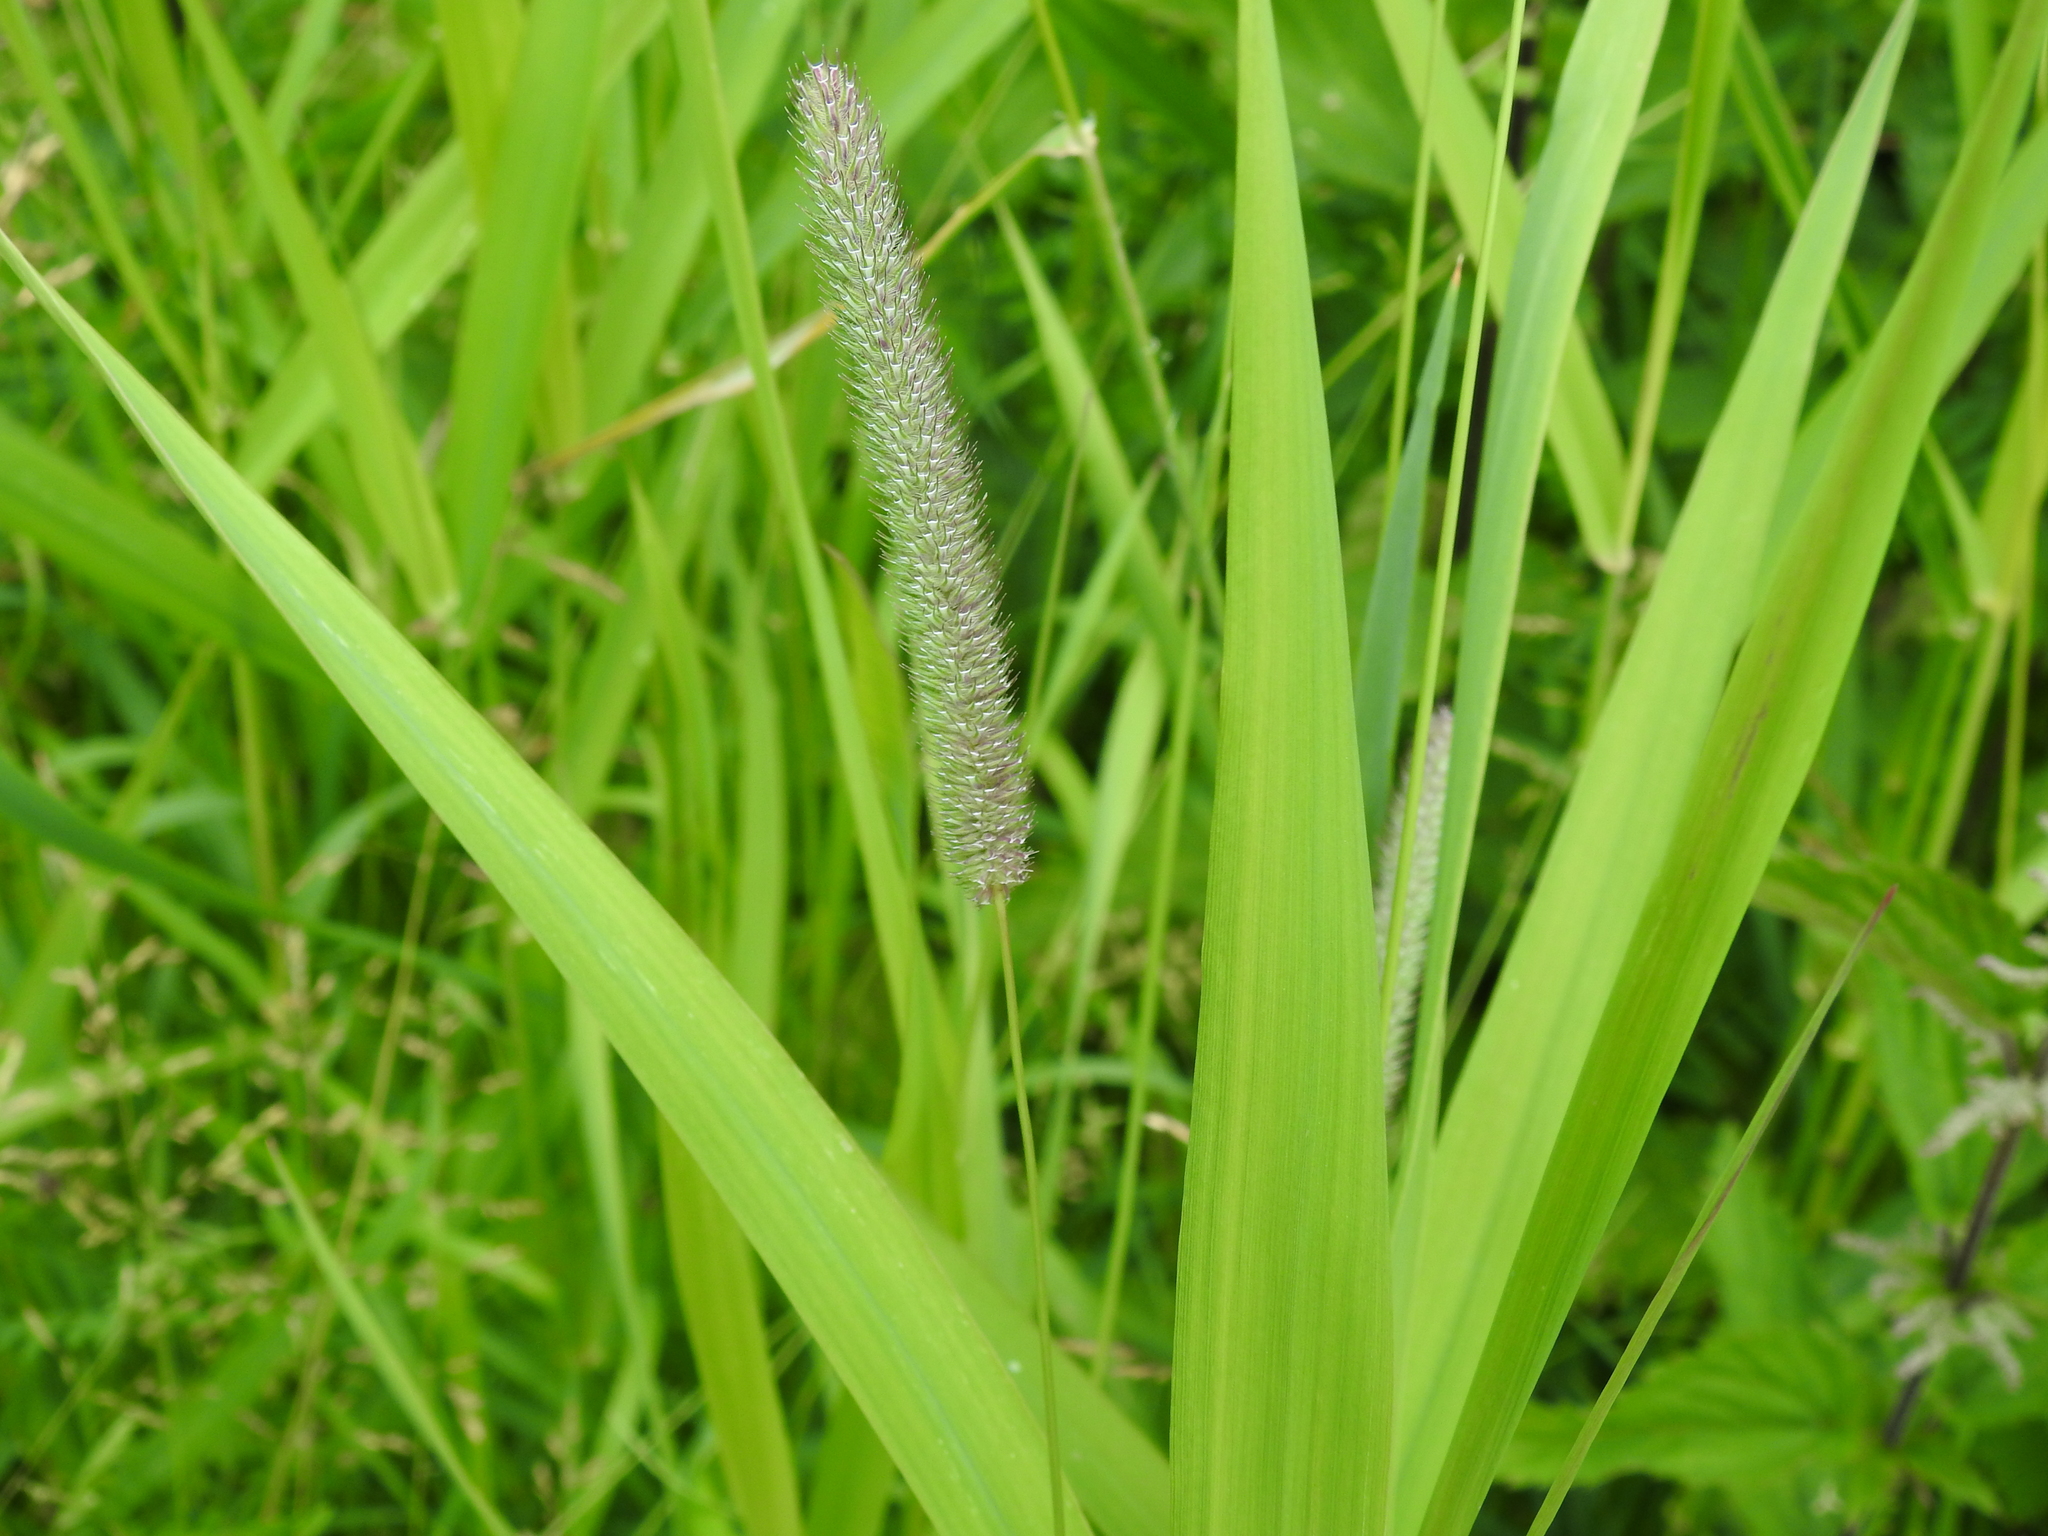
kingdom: Plantae
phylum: Tracheophyta
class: Liliopsida
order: Poales
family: Poaceae
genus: Phleum
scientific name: Phleum pratense
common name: Timothy grass
